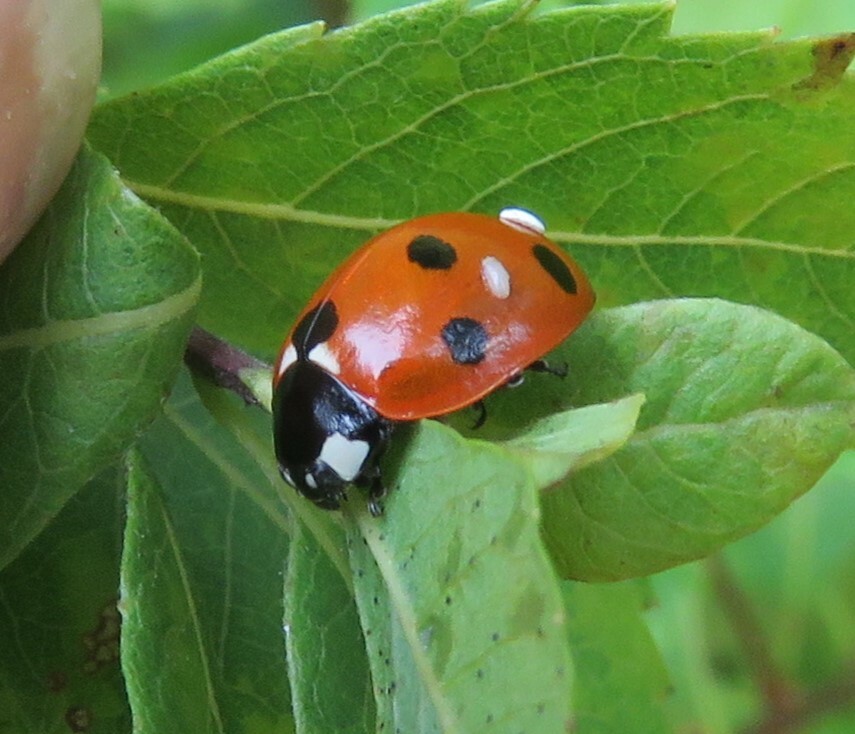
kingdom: Animalia
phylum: Arthropoda
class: Insecta
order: Coleoptera
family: Coccinellidae
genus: Coccinella
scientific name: Coccinella septempunctata
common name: Sevenspotted lady beetle
